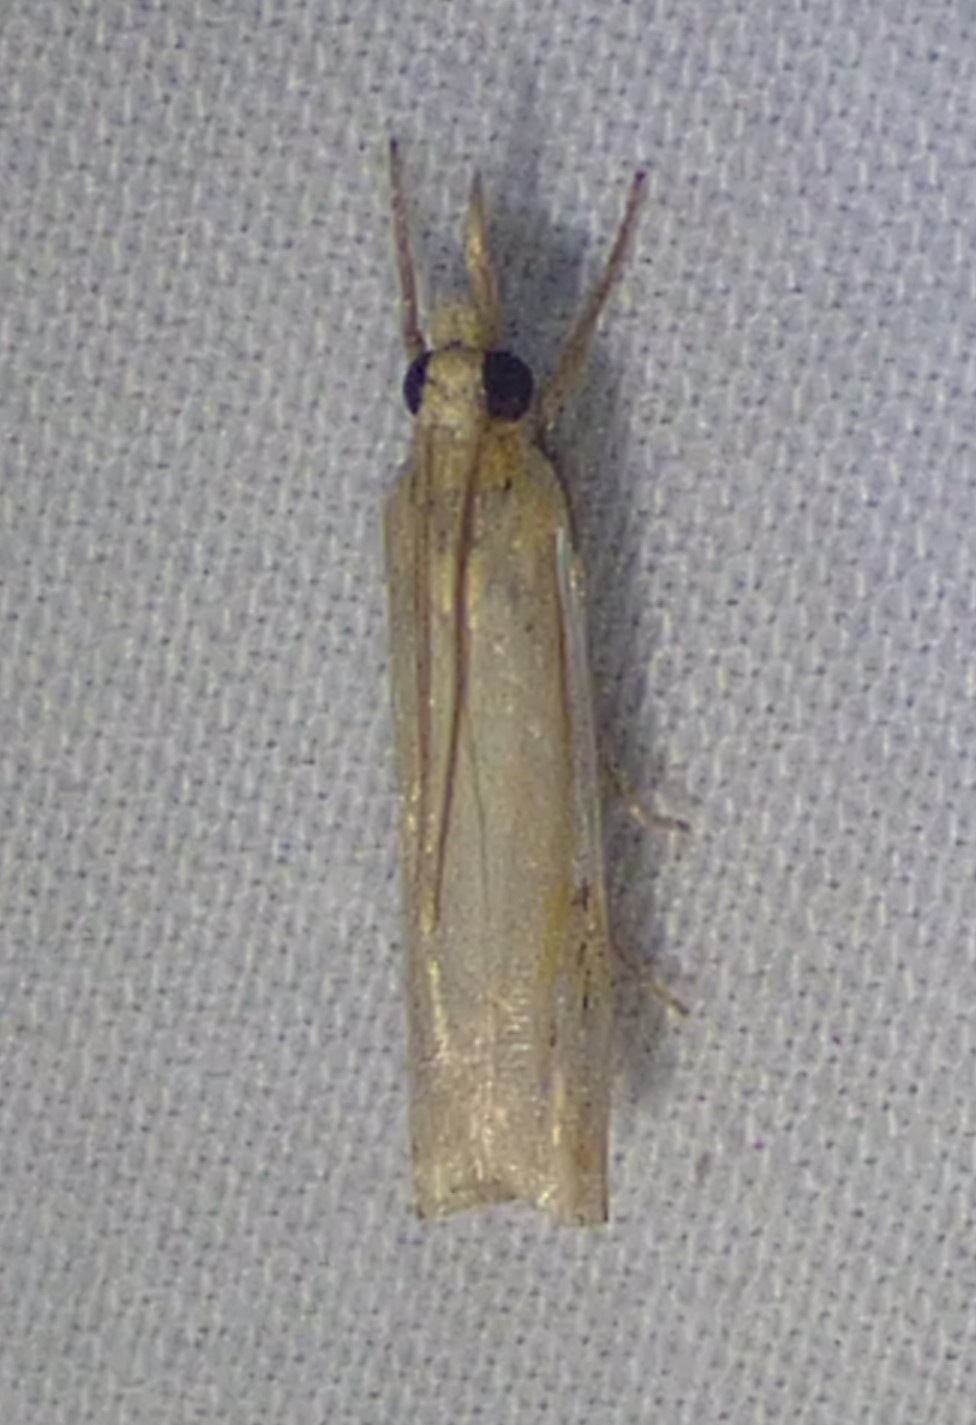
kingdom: Animalia
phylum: Arthropoda
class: Insecta
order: Lepidoptera
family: Crambidae
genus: Crambus
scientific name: Crambus agitatellus
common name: Double-banded grass-veneer
